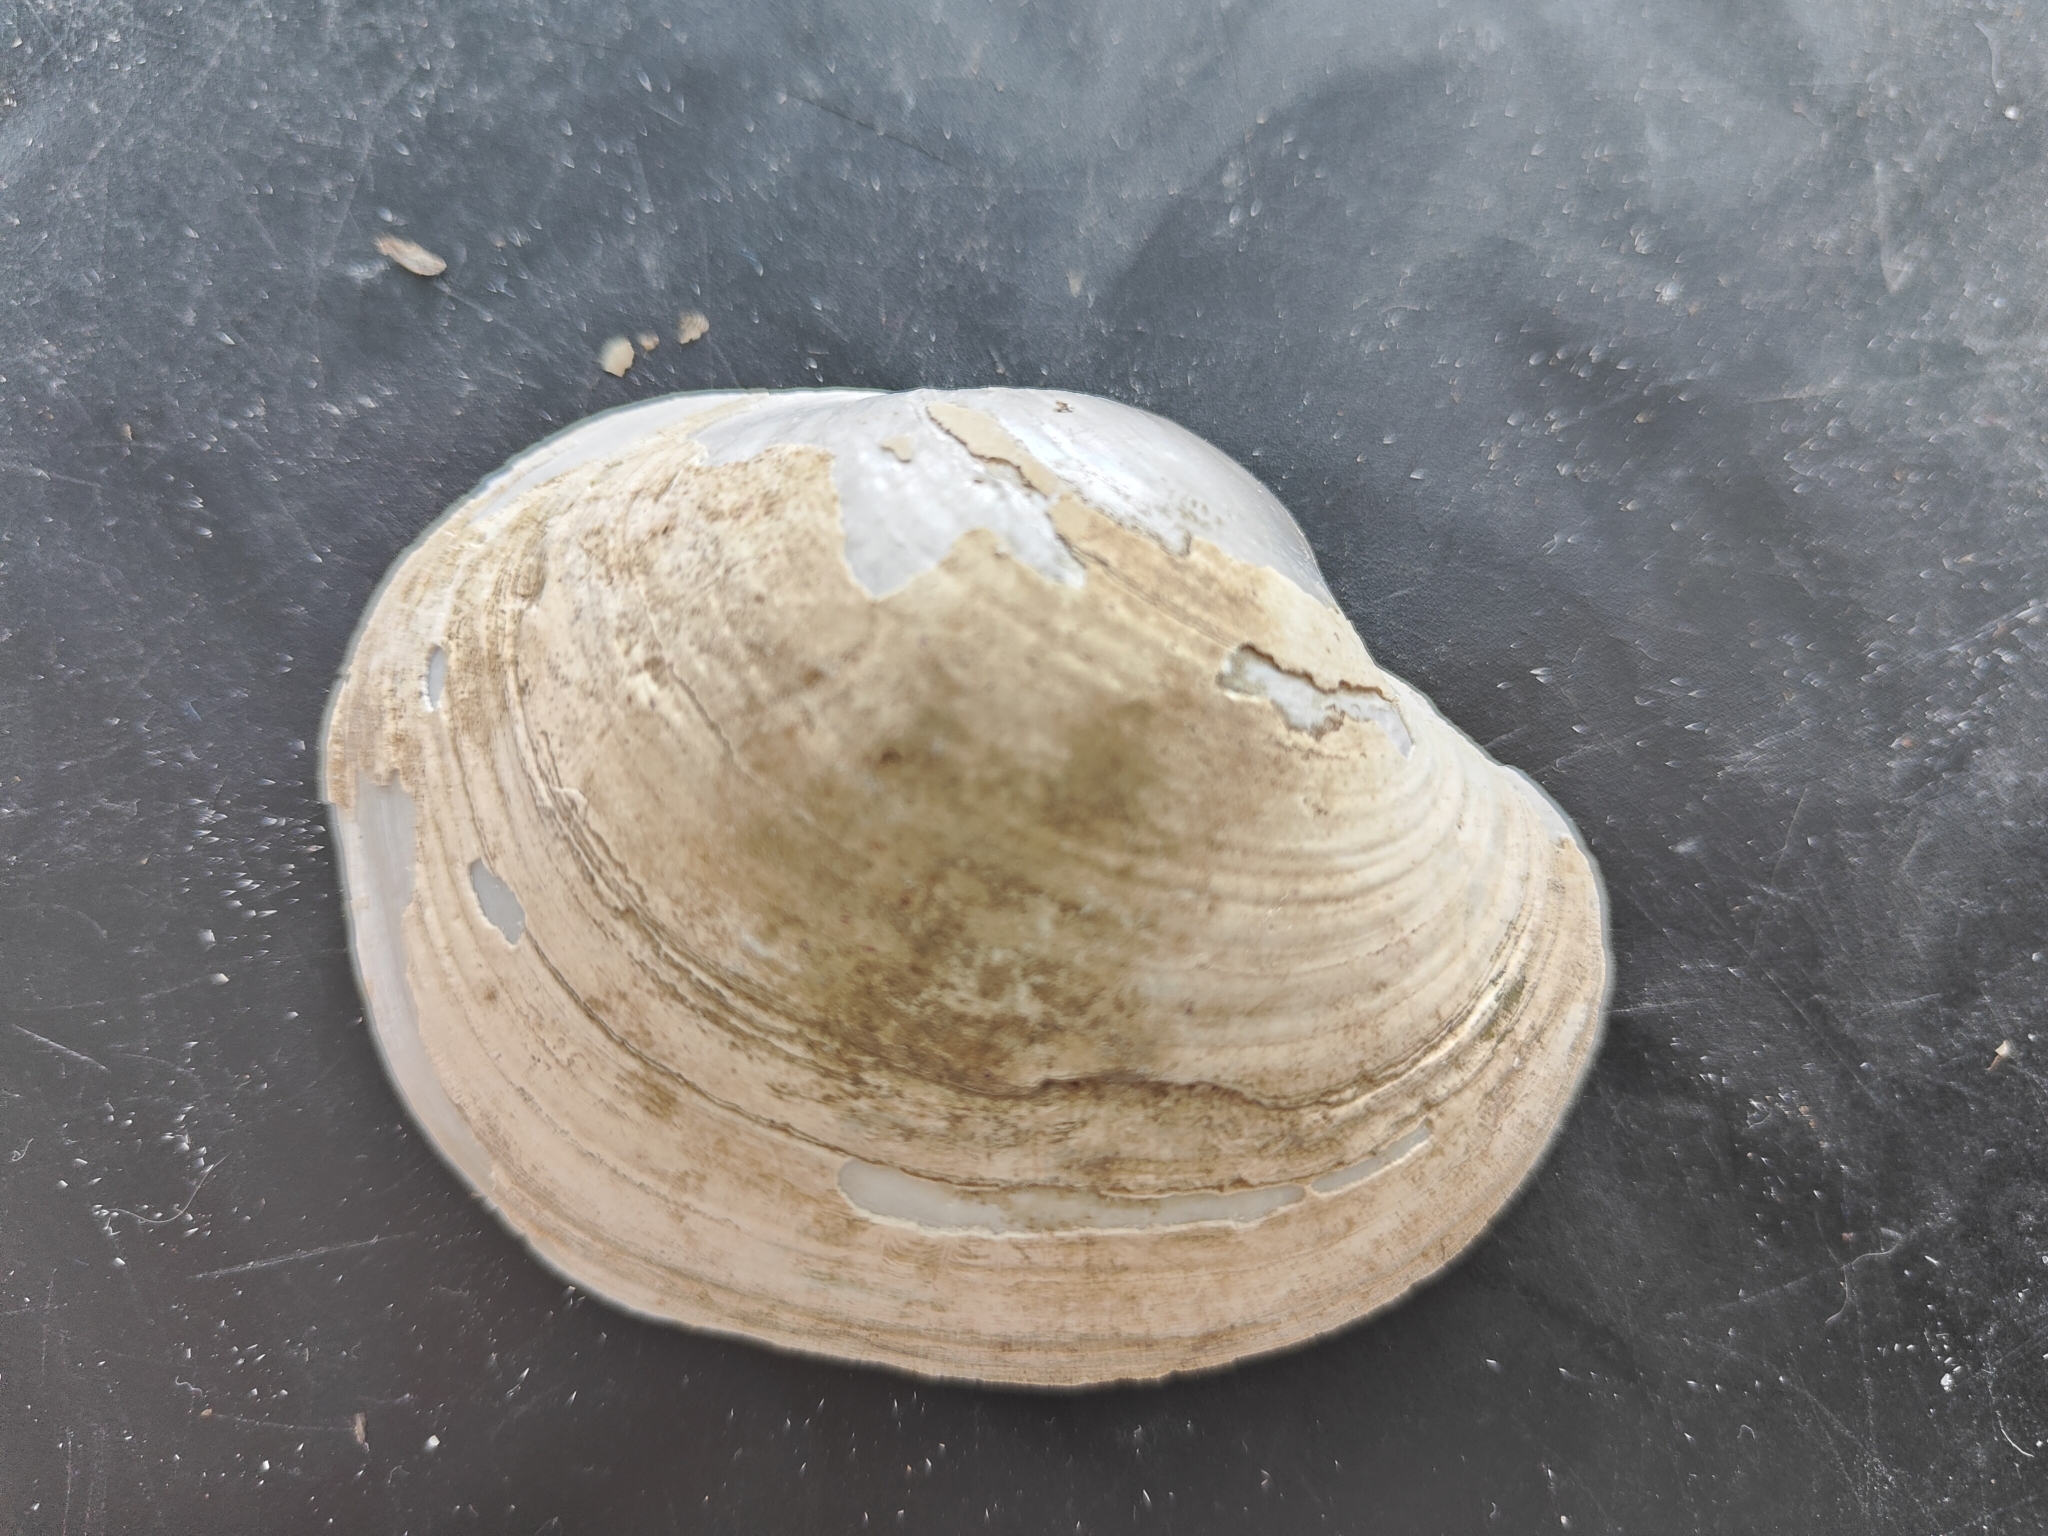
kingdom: Animalia
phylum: Mollusca
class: Bivalvia
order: Unionida
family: Unionidae
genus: Lampsilis
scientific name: Lampsilis cardium
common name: Plain pocketbook
